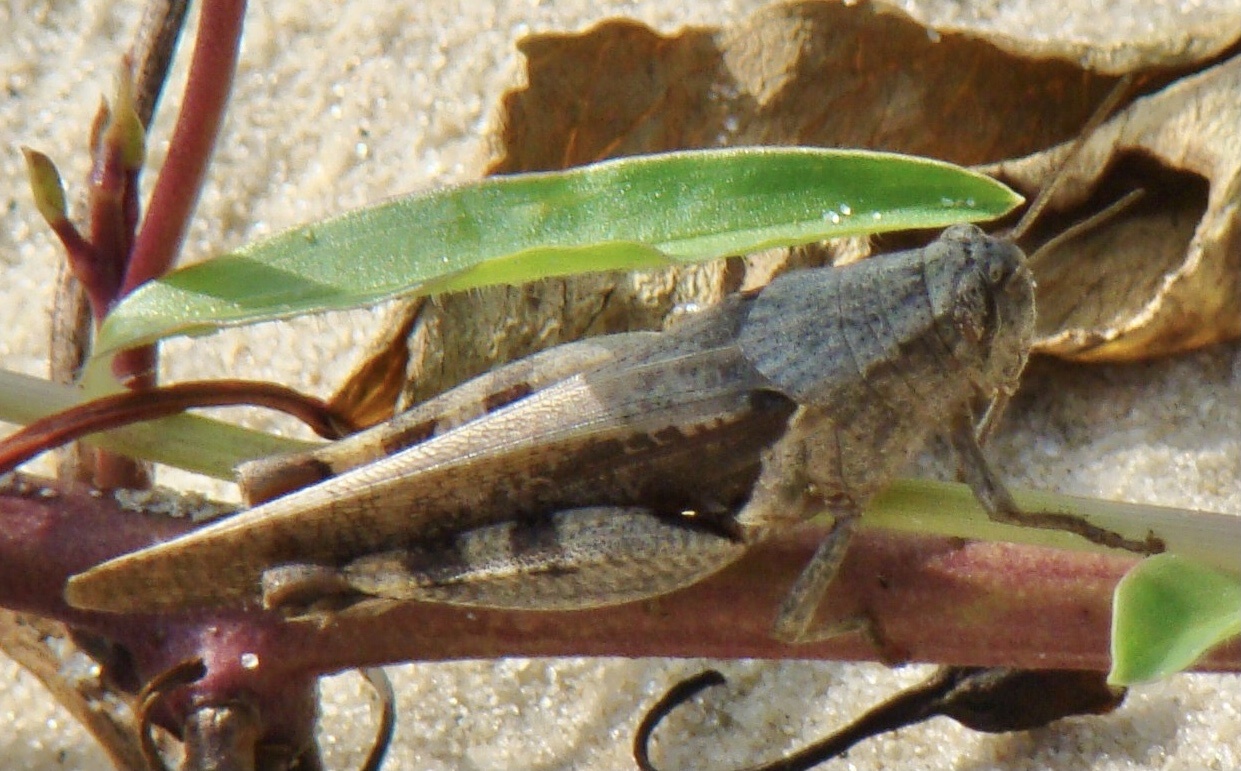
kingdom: Animalia
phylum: Arthropoda
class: Insecta
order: Orthoptera
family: Acrididae
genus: Diabolocatantops
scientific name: Diabolocatantops axillaris
